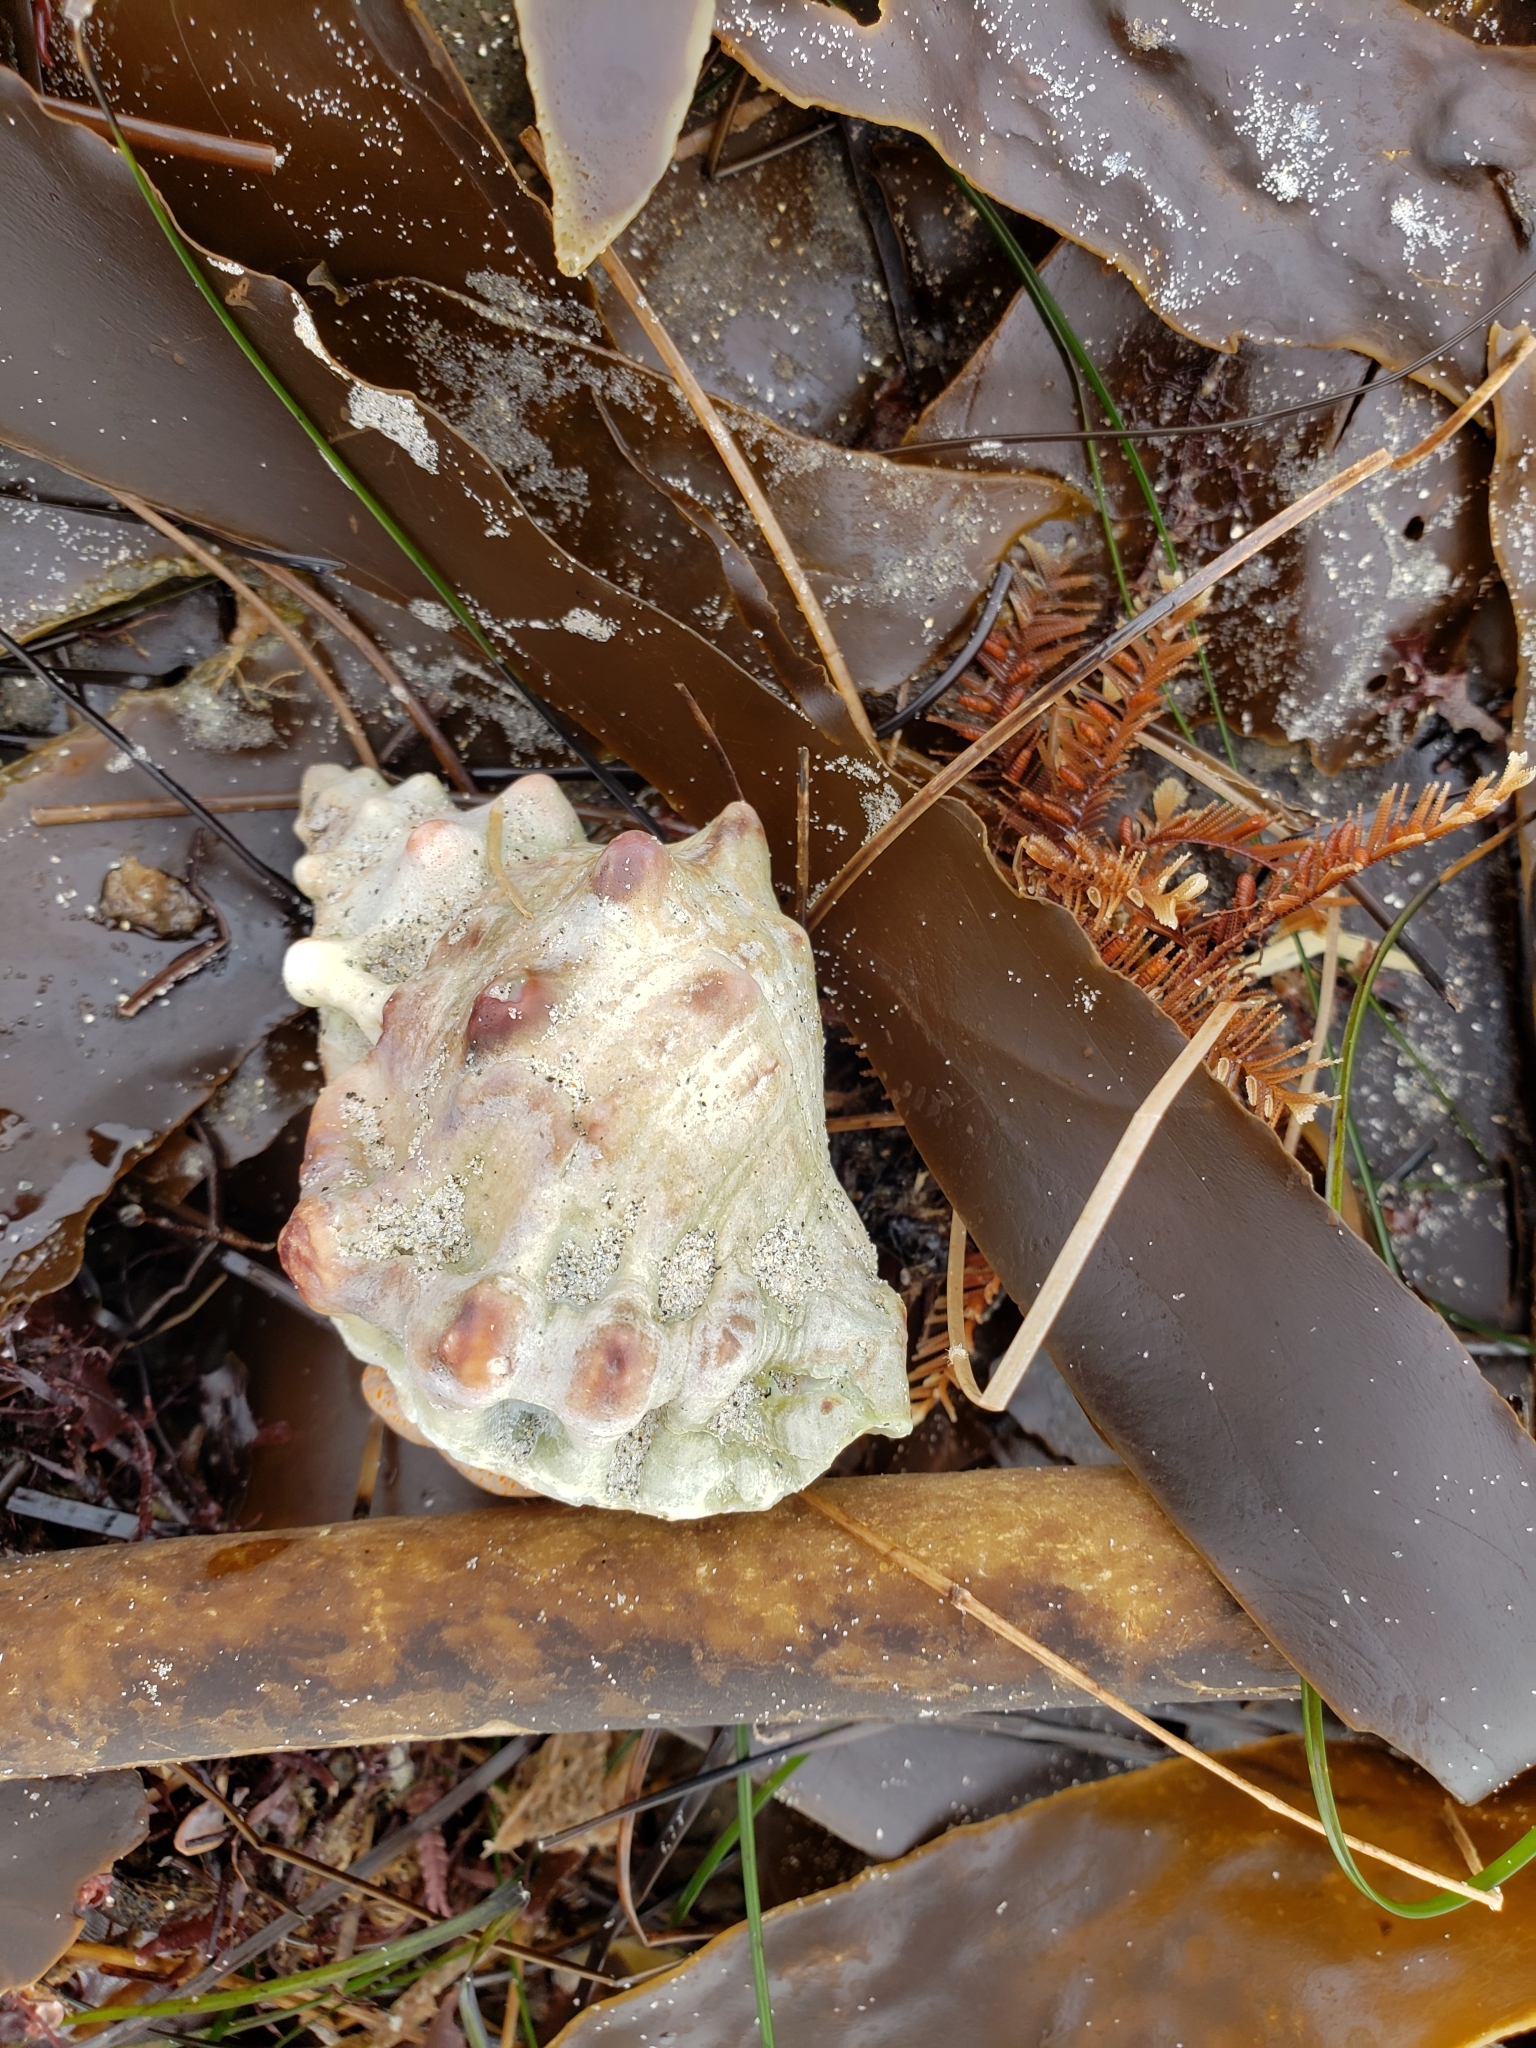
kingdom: Animalia
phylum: Mollusca
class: Gastropoda
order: Littorinimorpha
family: Bursidae
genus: Crossata
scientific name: Crossata californica
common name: California frogsnail
